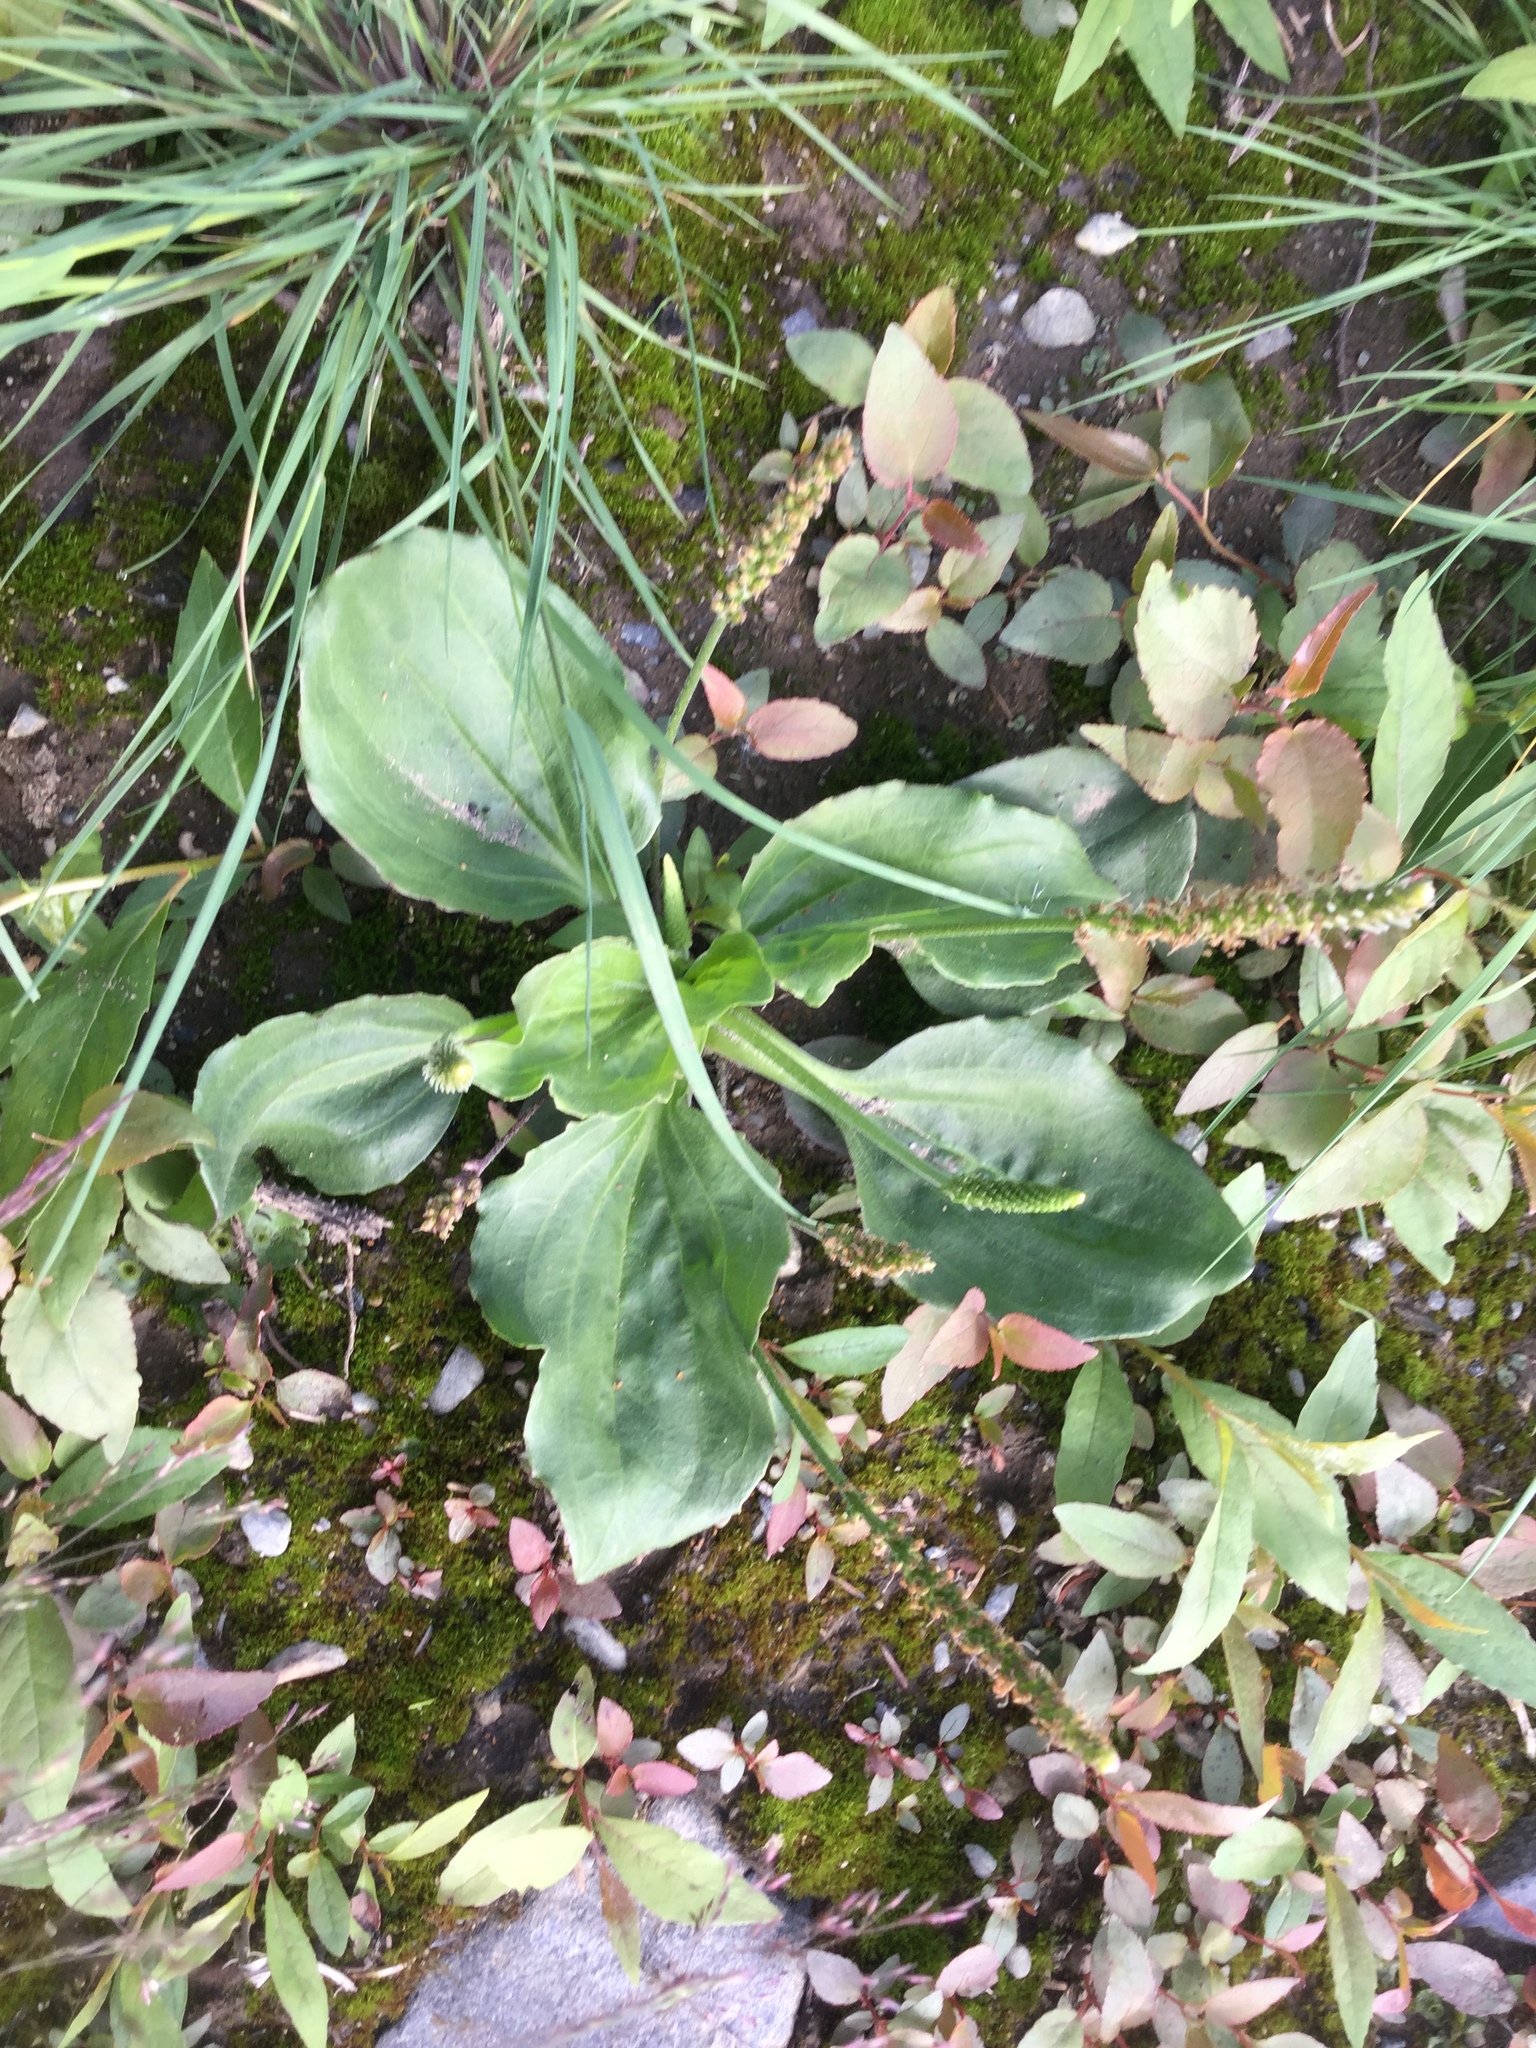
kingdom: Plantae
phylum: Tracheophyta
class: Magnoliopsida
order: Lamiales
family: Plantaginaceae
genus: Plantago
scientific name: Plantago major
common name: Common plantain
